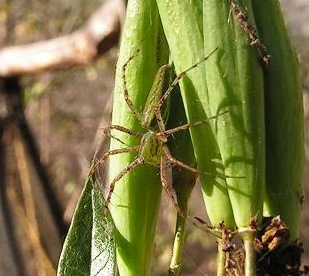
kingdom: Animalia
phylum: Arthropoda
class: Arachnida
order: Araneae
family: Oxyopidae
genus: Peucetia
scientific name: Peucetia viridans
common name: Lynx spiders
